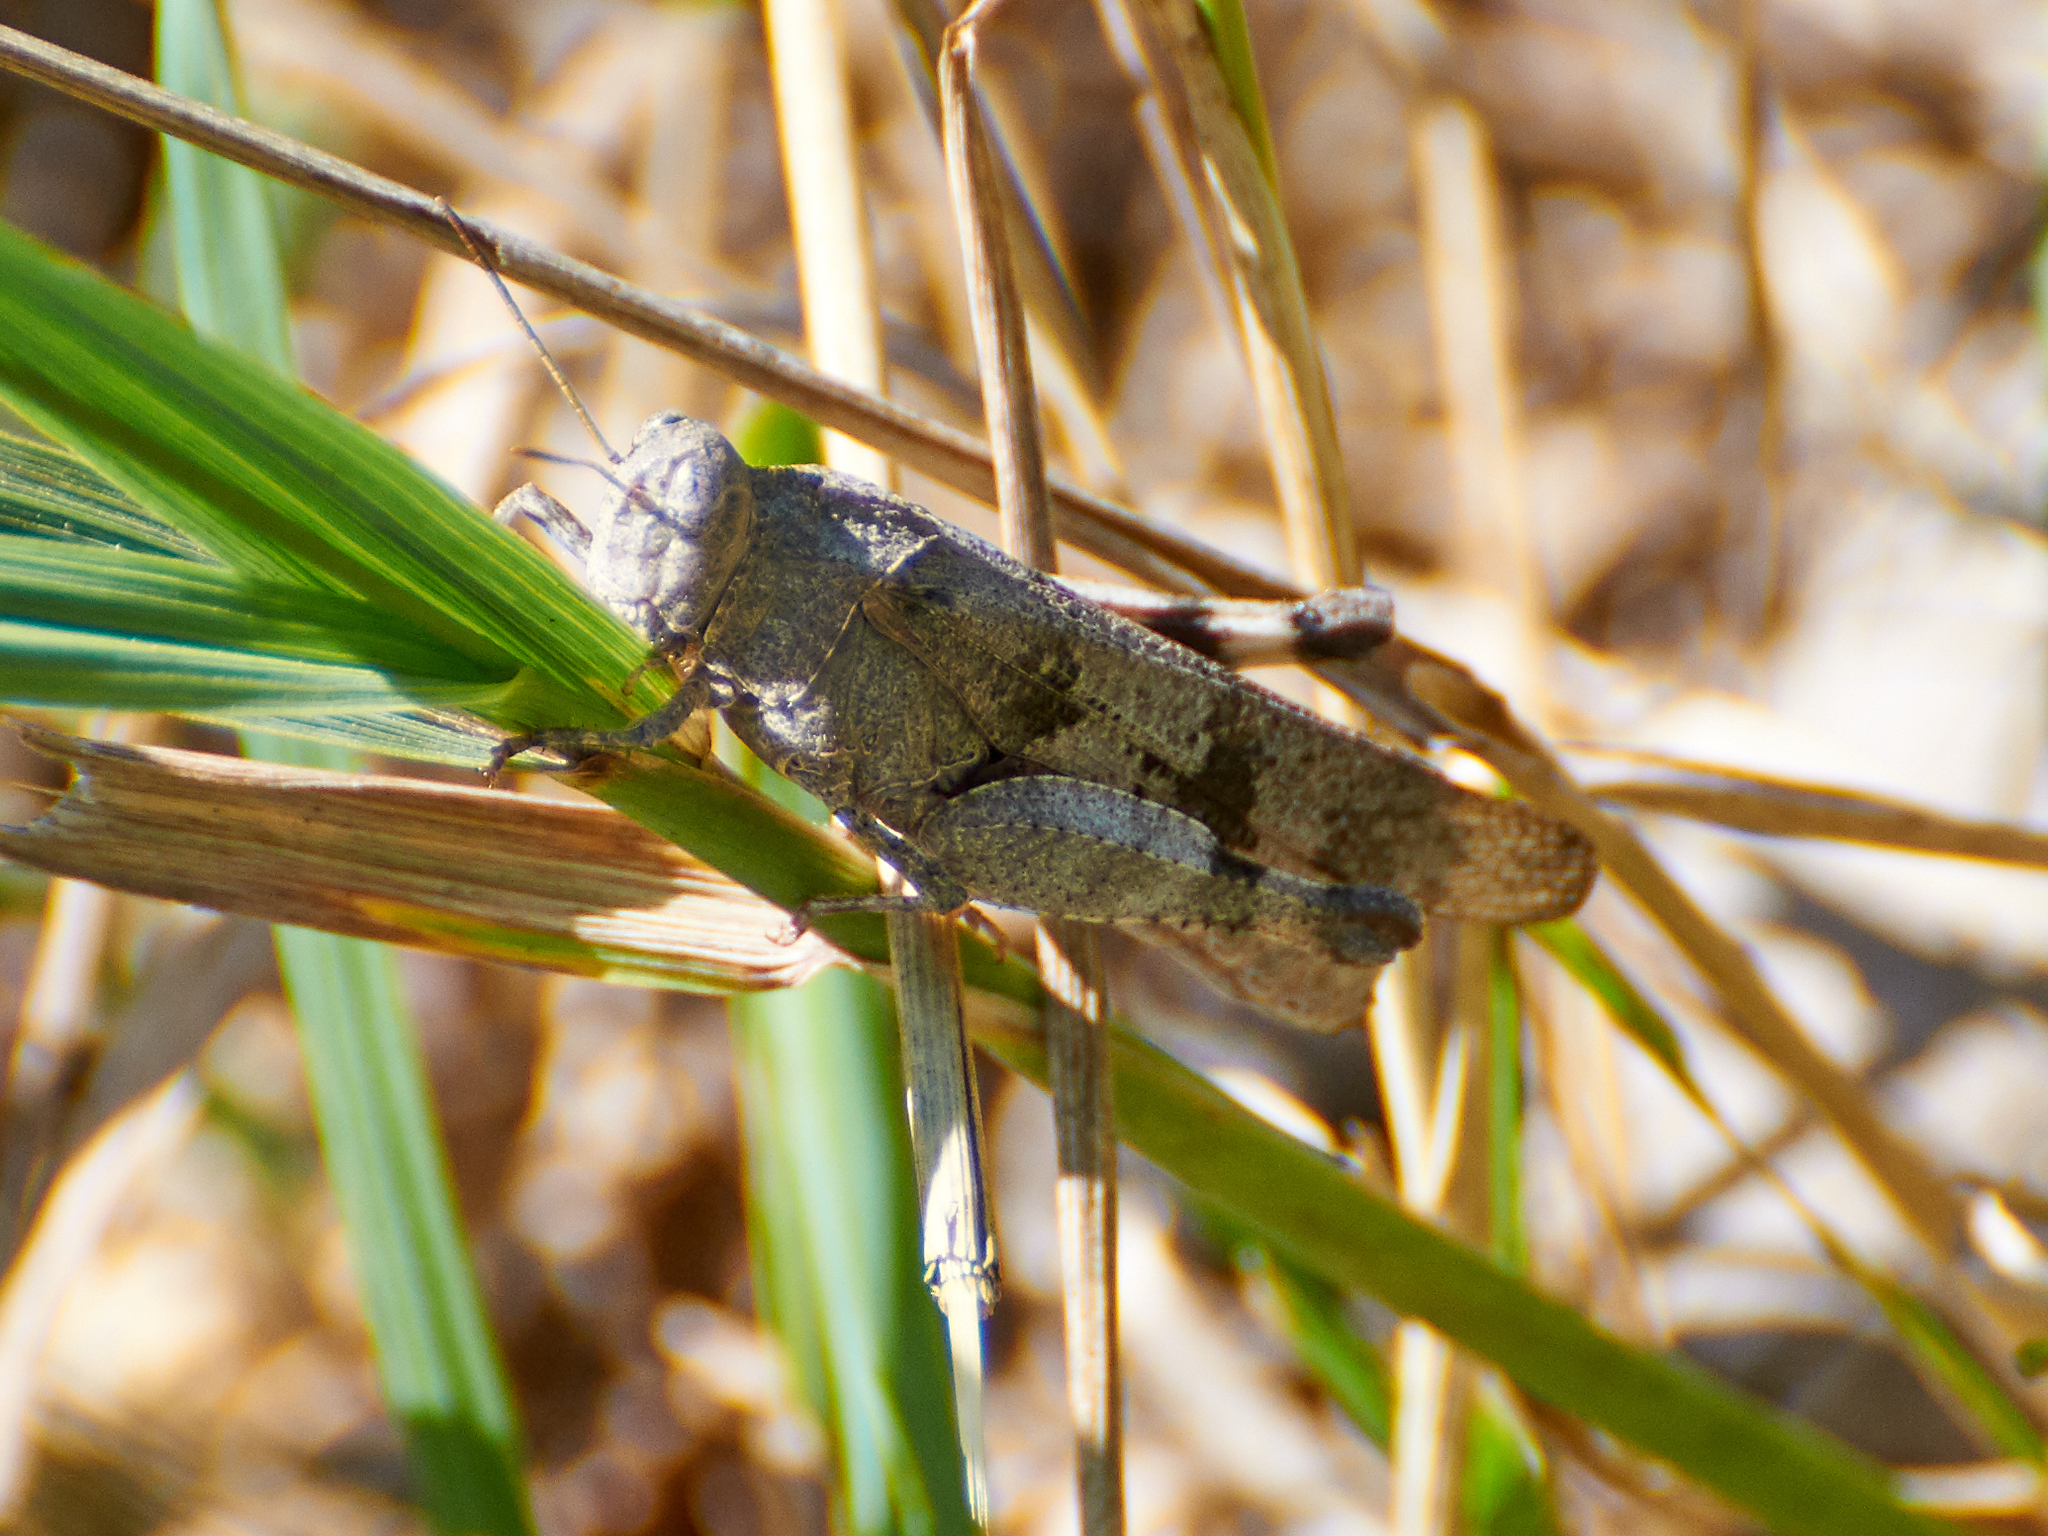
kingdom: Animalia
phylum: Arthropoda
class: Insecta
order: Orthoptera
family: Acrididae
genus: Oedipoda
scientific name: Oedipoda caerulescens
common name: Blue-winged grasshopper
